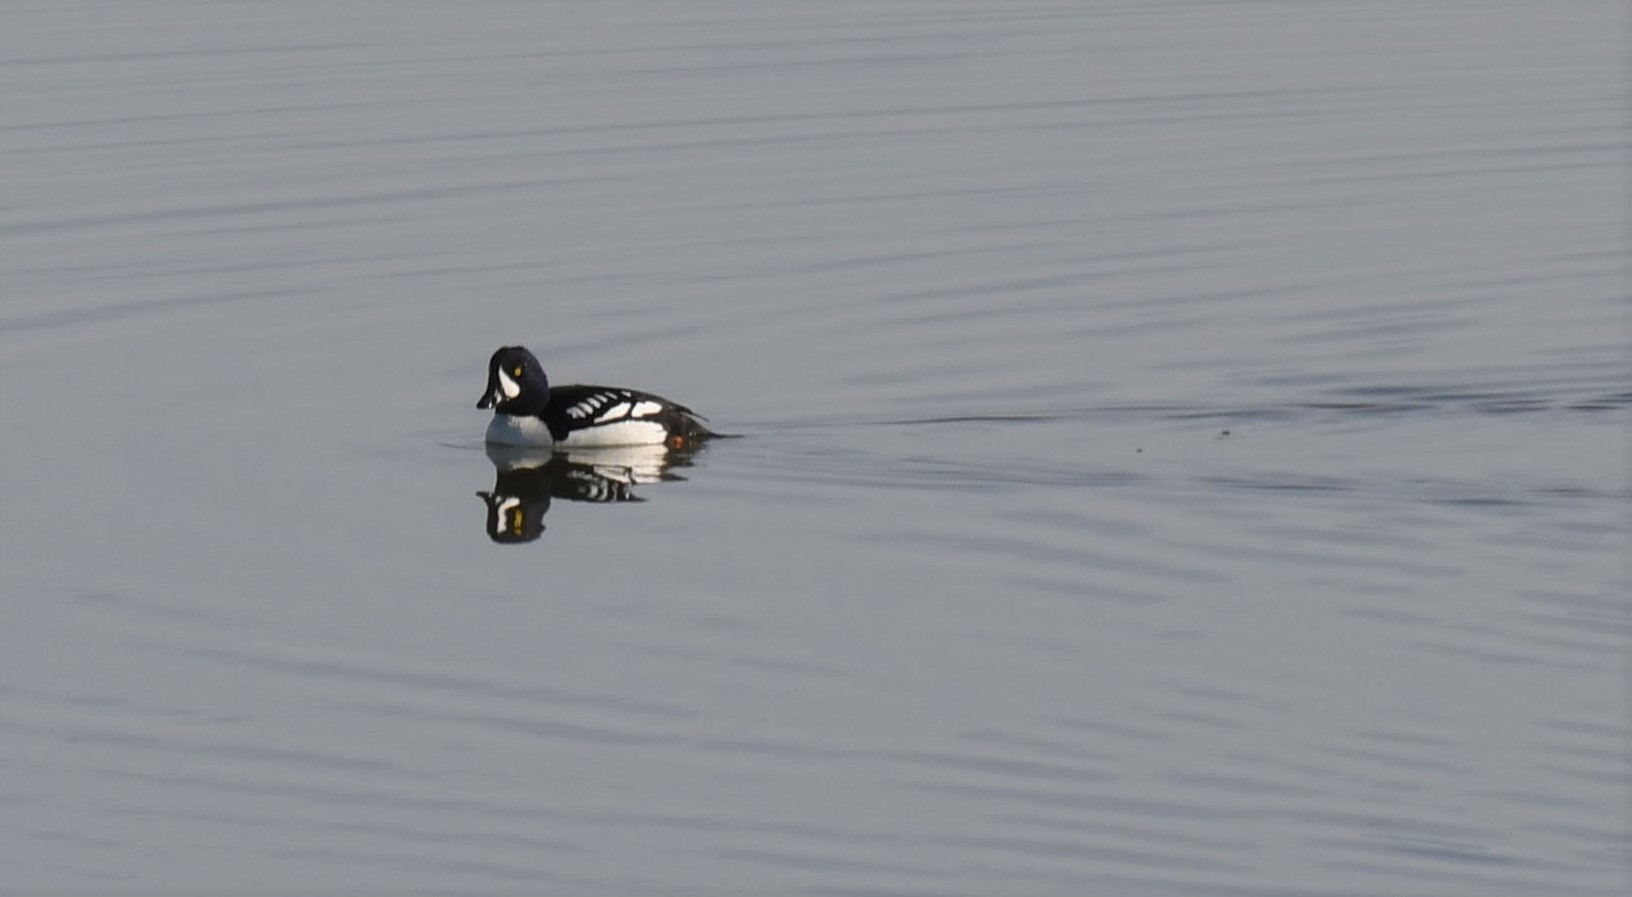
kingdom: Animalia
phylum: Chordata
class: Aves
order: Anseriformes
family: Anatidae
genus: Bucephala
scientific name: Bucephala islandica
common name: Barrow's goldeneye
